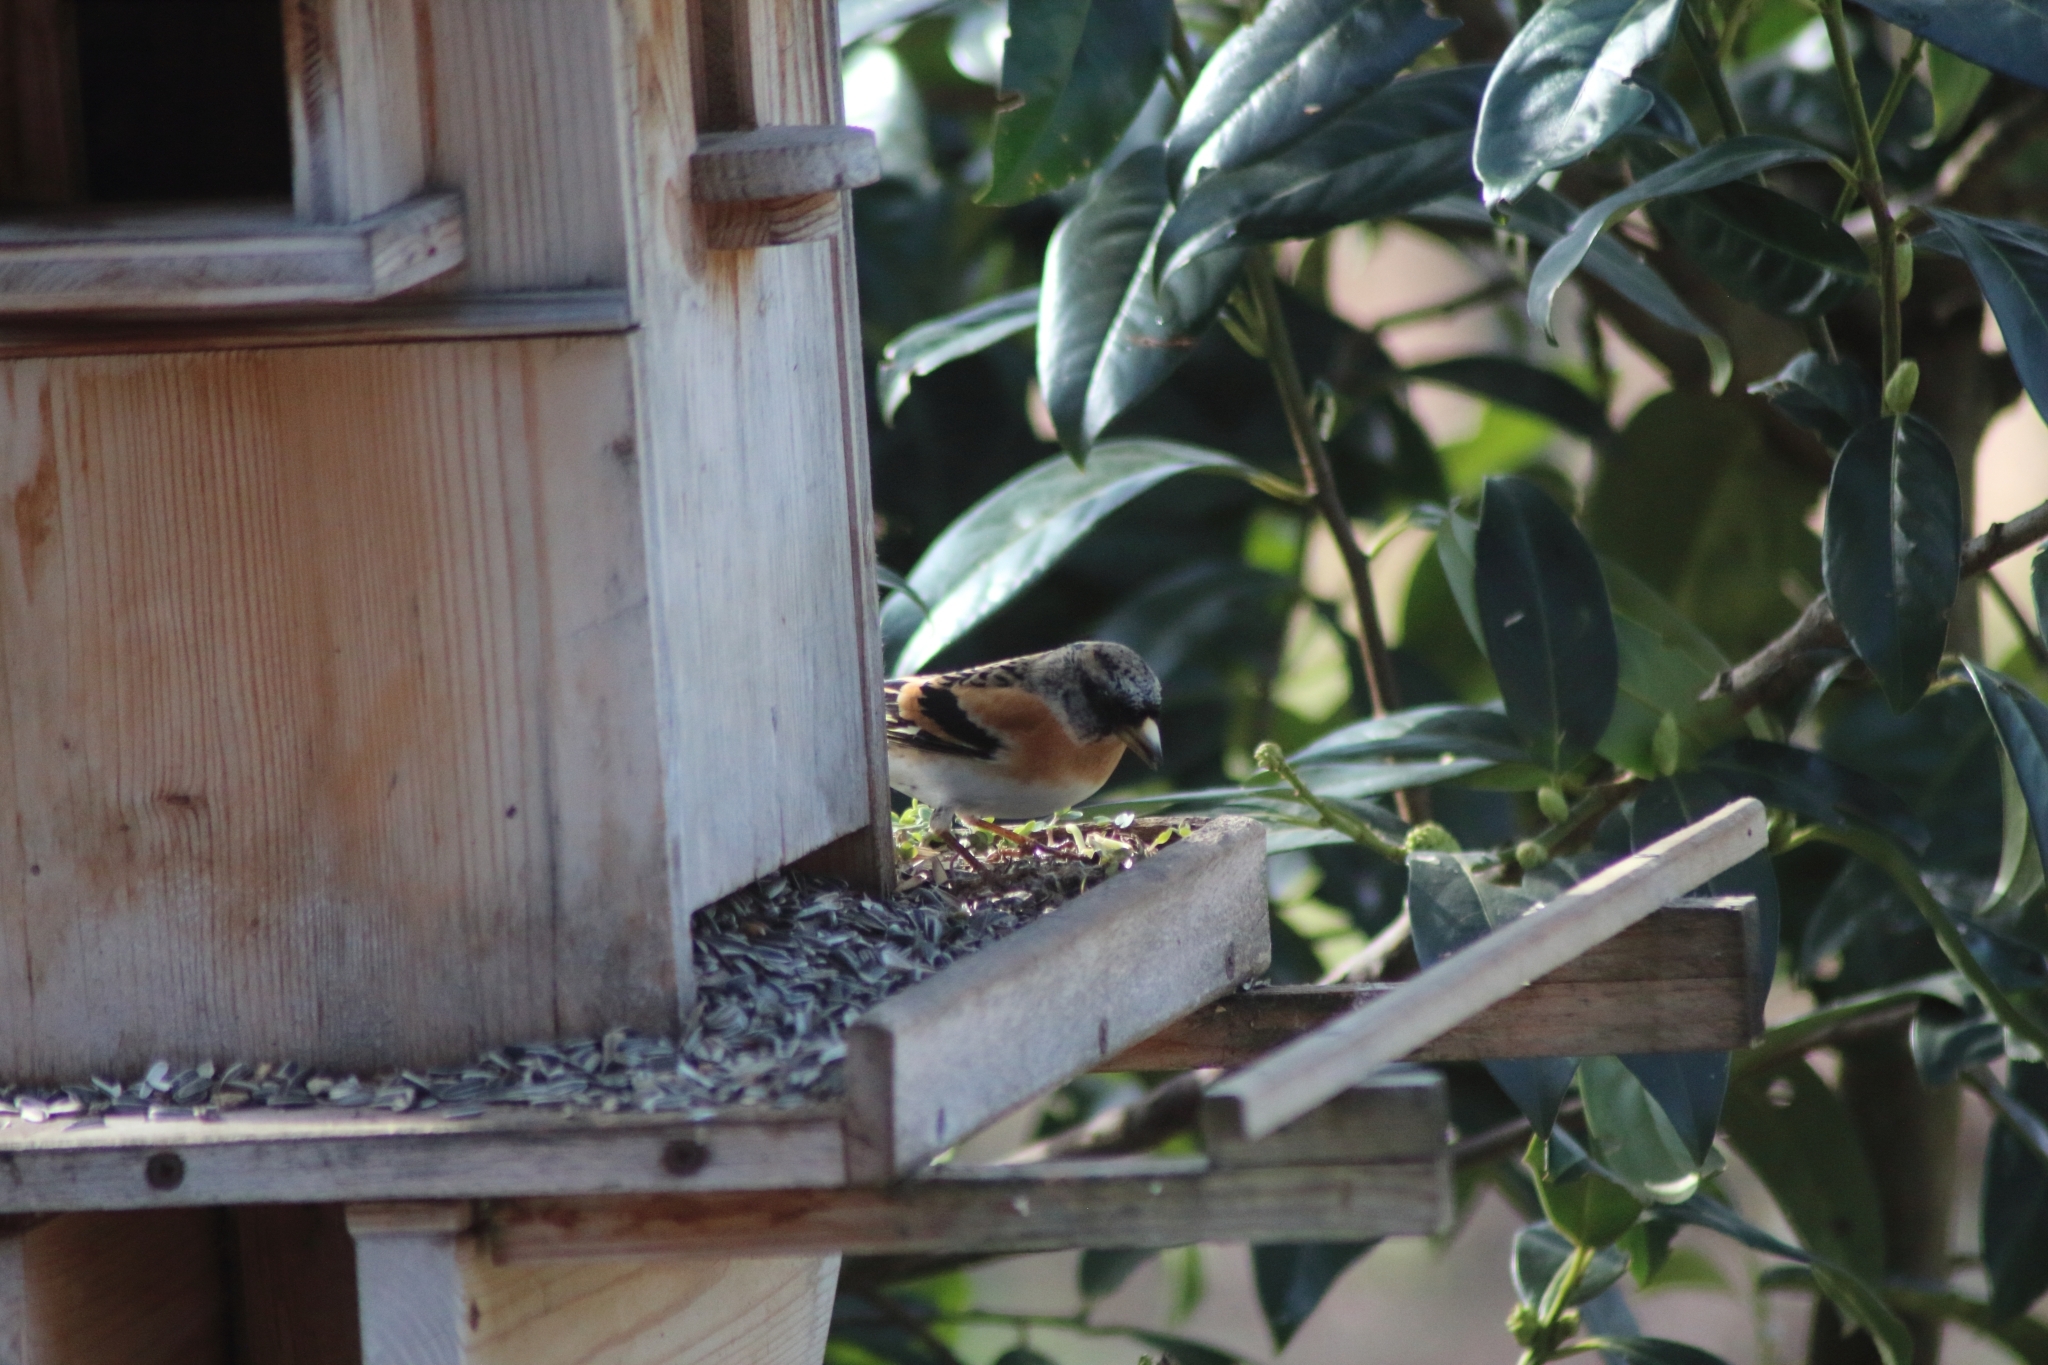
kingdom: Animalia
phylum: Chordata
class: Aves
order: Passeriformes
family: Fringillidae
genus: Fringilla
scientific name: Fringilla montifringilla
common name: Brambling
